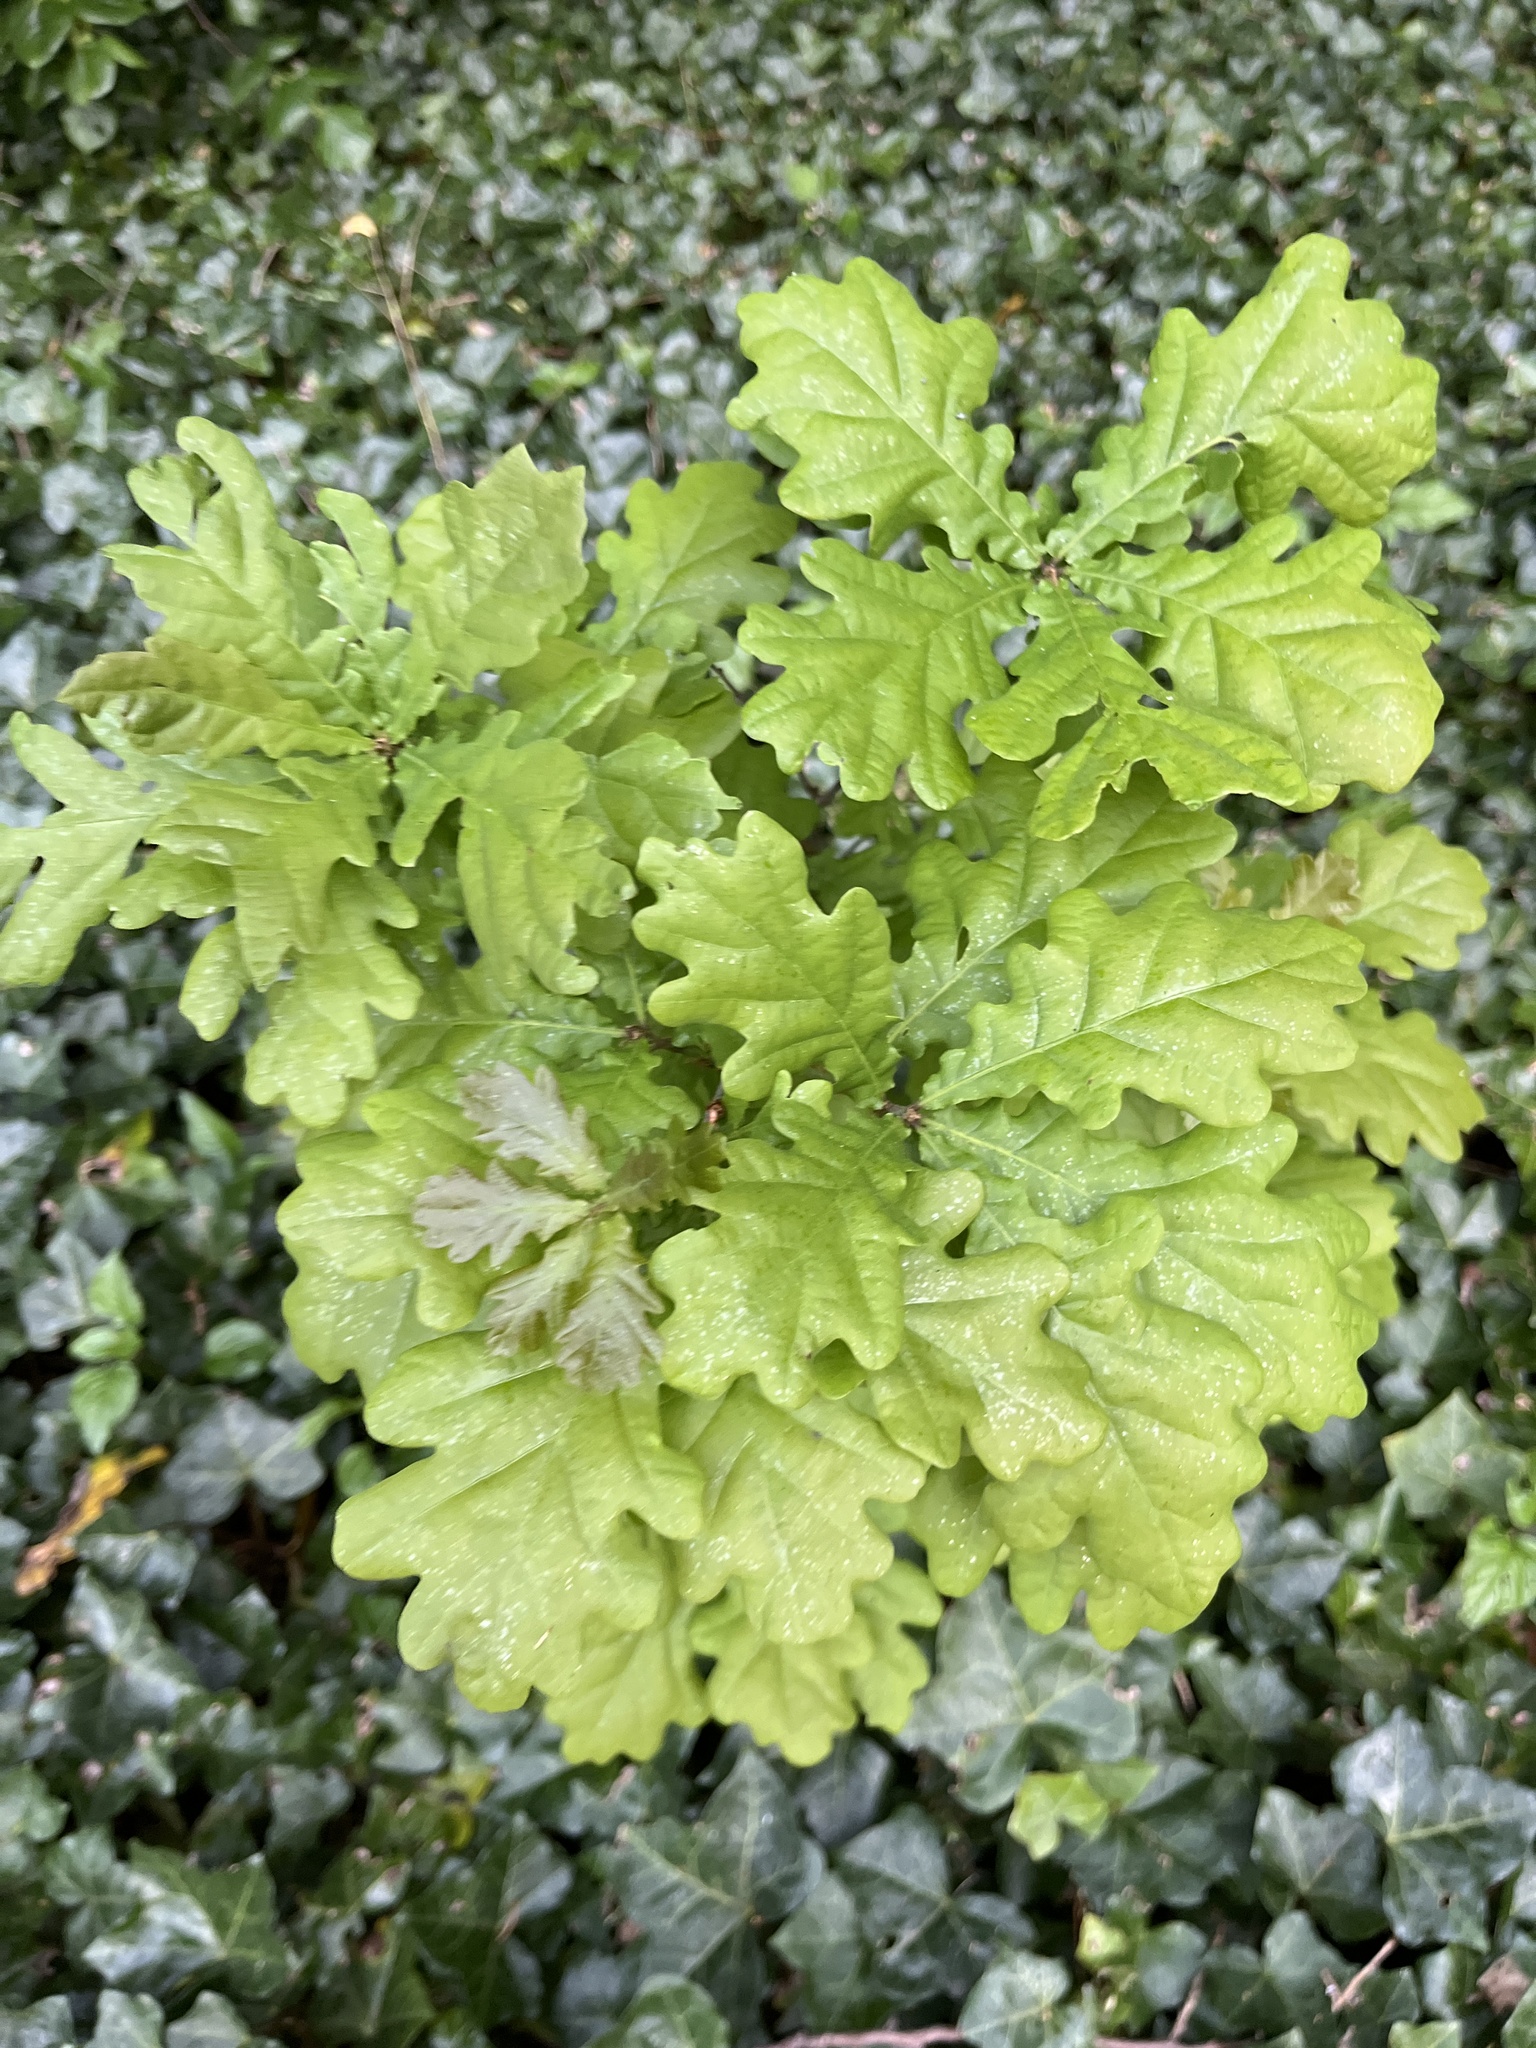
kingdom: Plantae
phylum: Tracheophyta
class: Magnoliopsida
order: Fagales
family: Fagaceae
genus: Quercus
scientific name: Quercus robur
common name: Pedunculate oak
